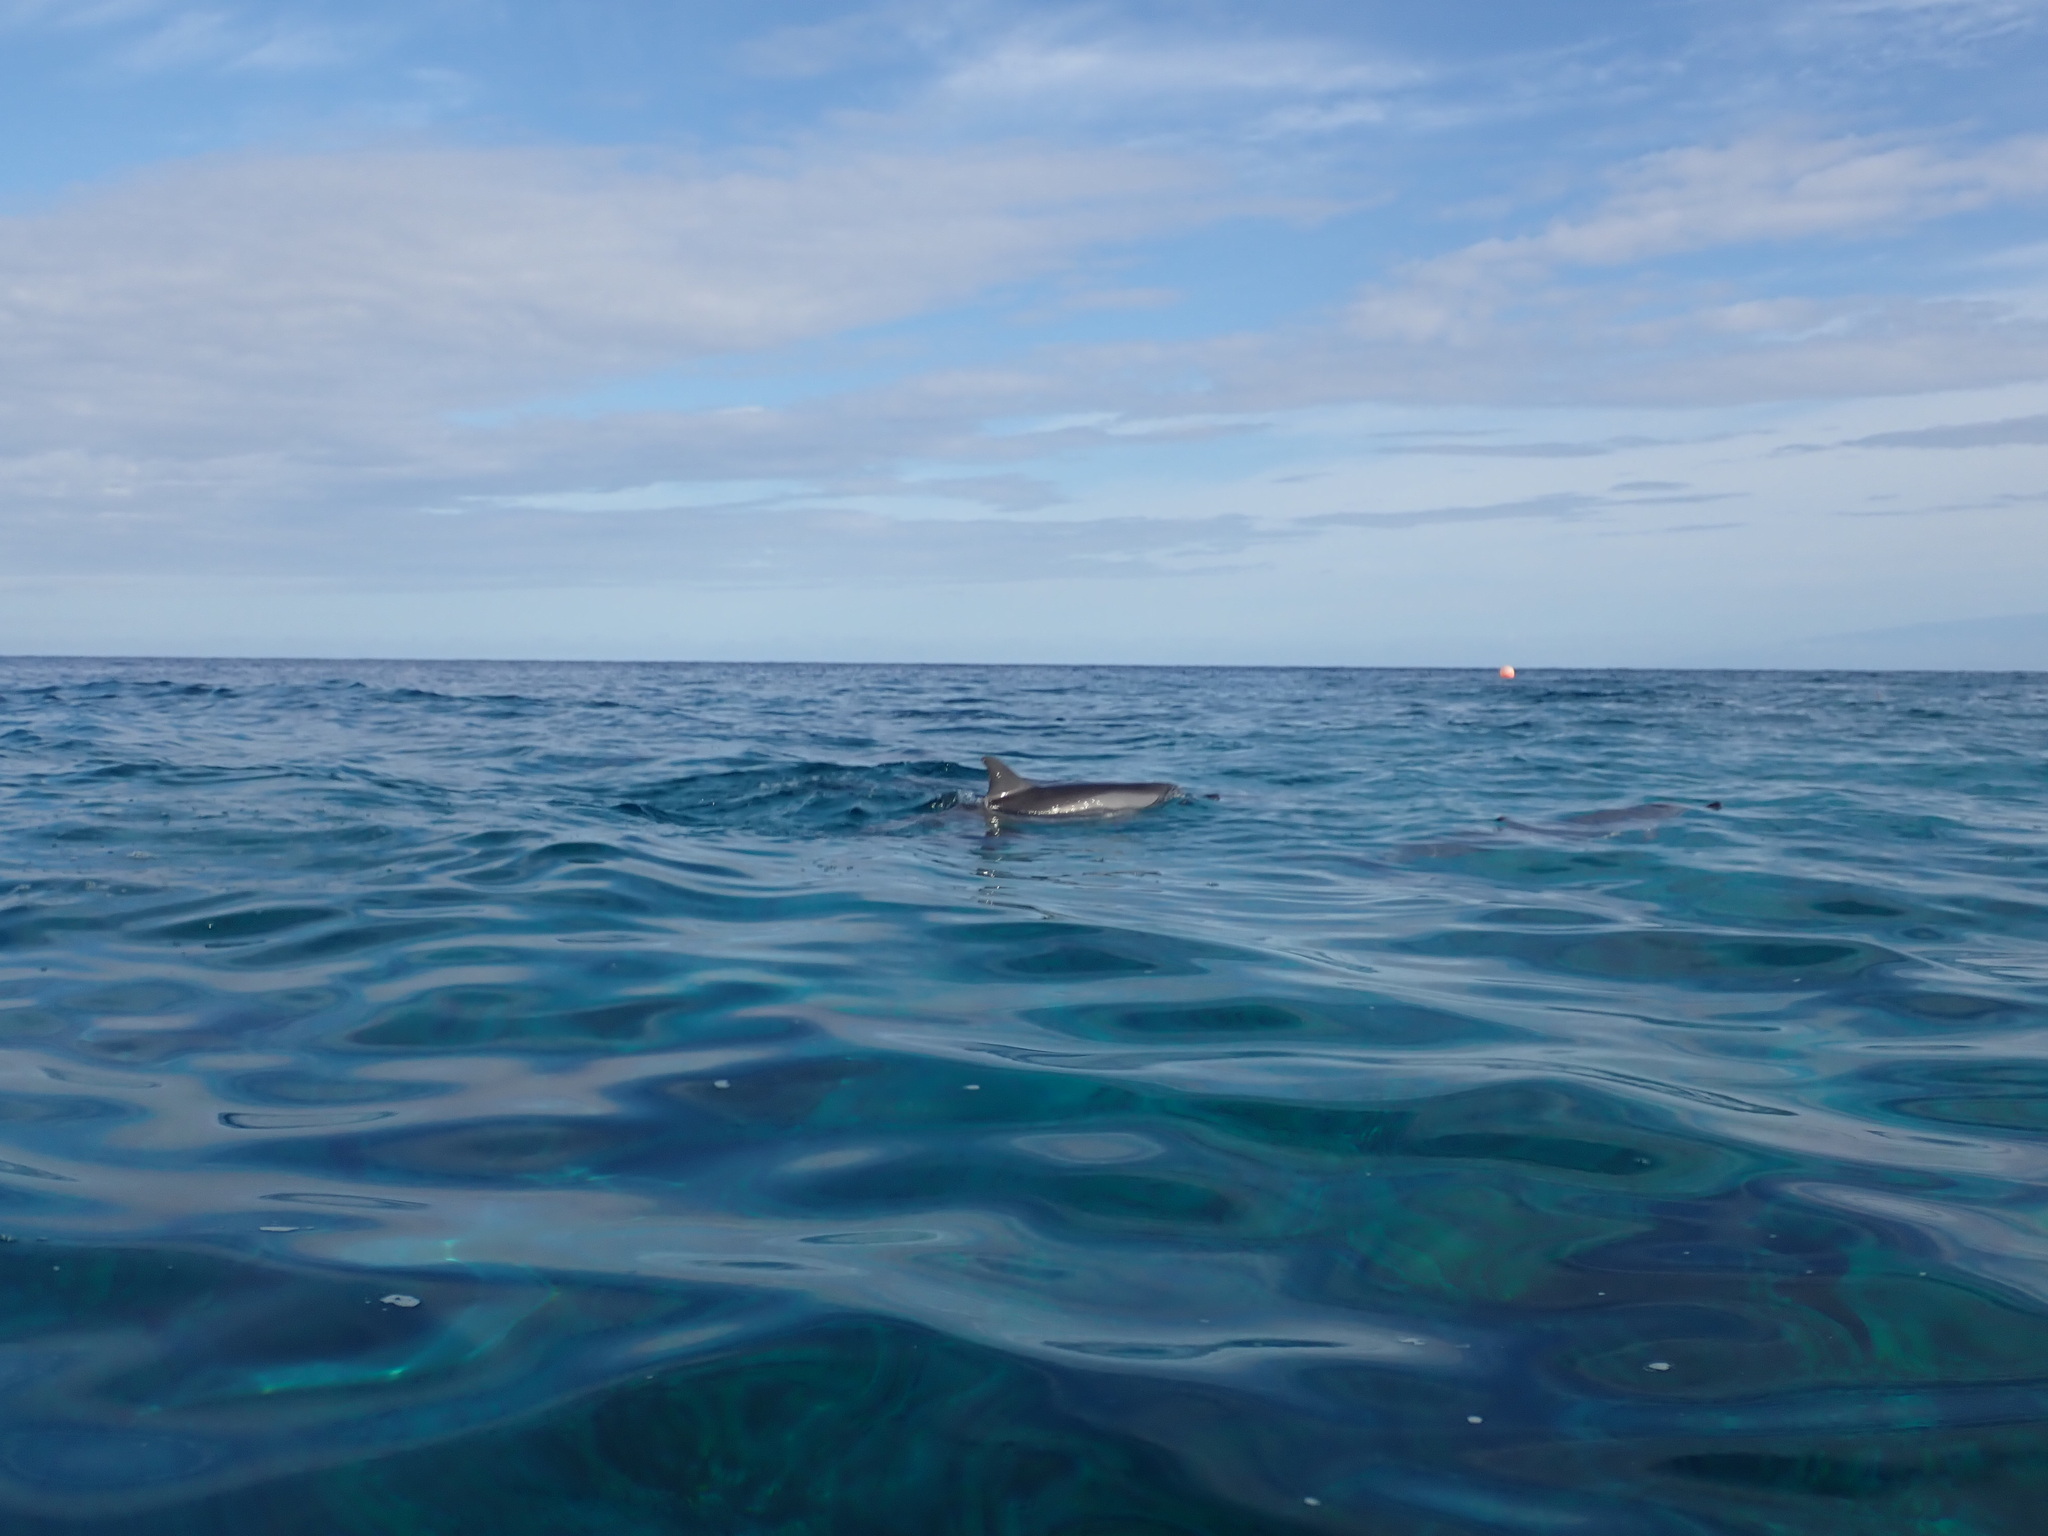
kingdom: Animalia
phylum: Chordata
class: Mammalia
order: Cetacea
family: Delphinidae
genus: Stenella
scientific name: Stenella longirostris
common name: Spinner dolphin
